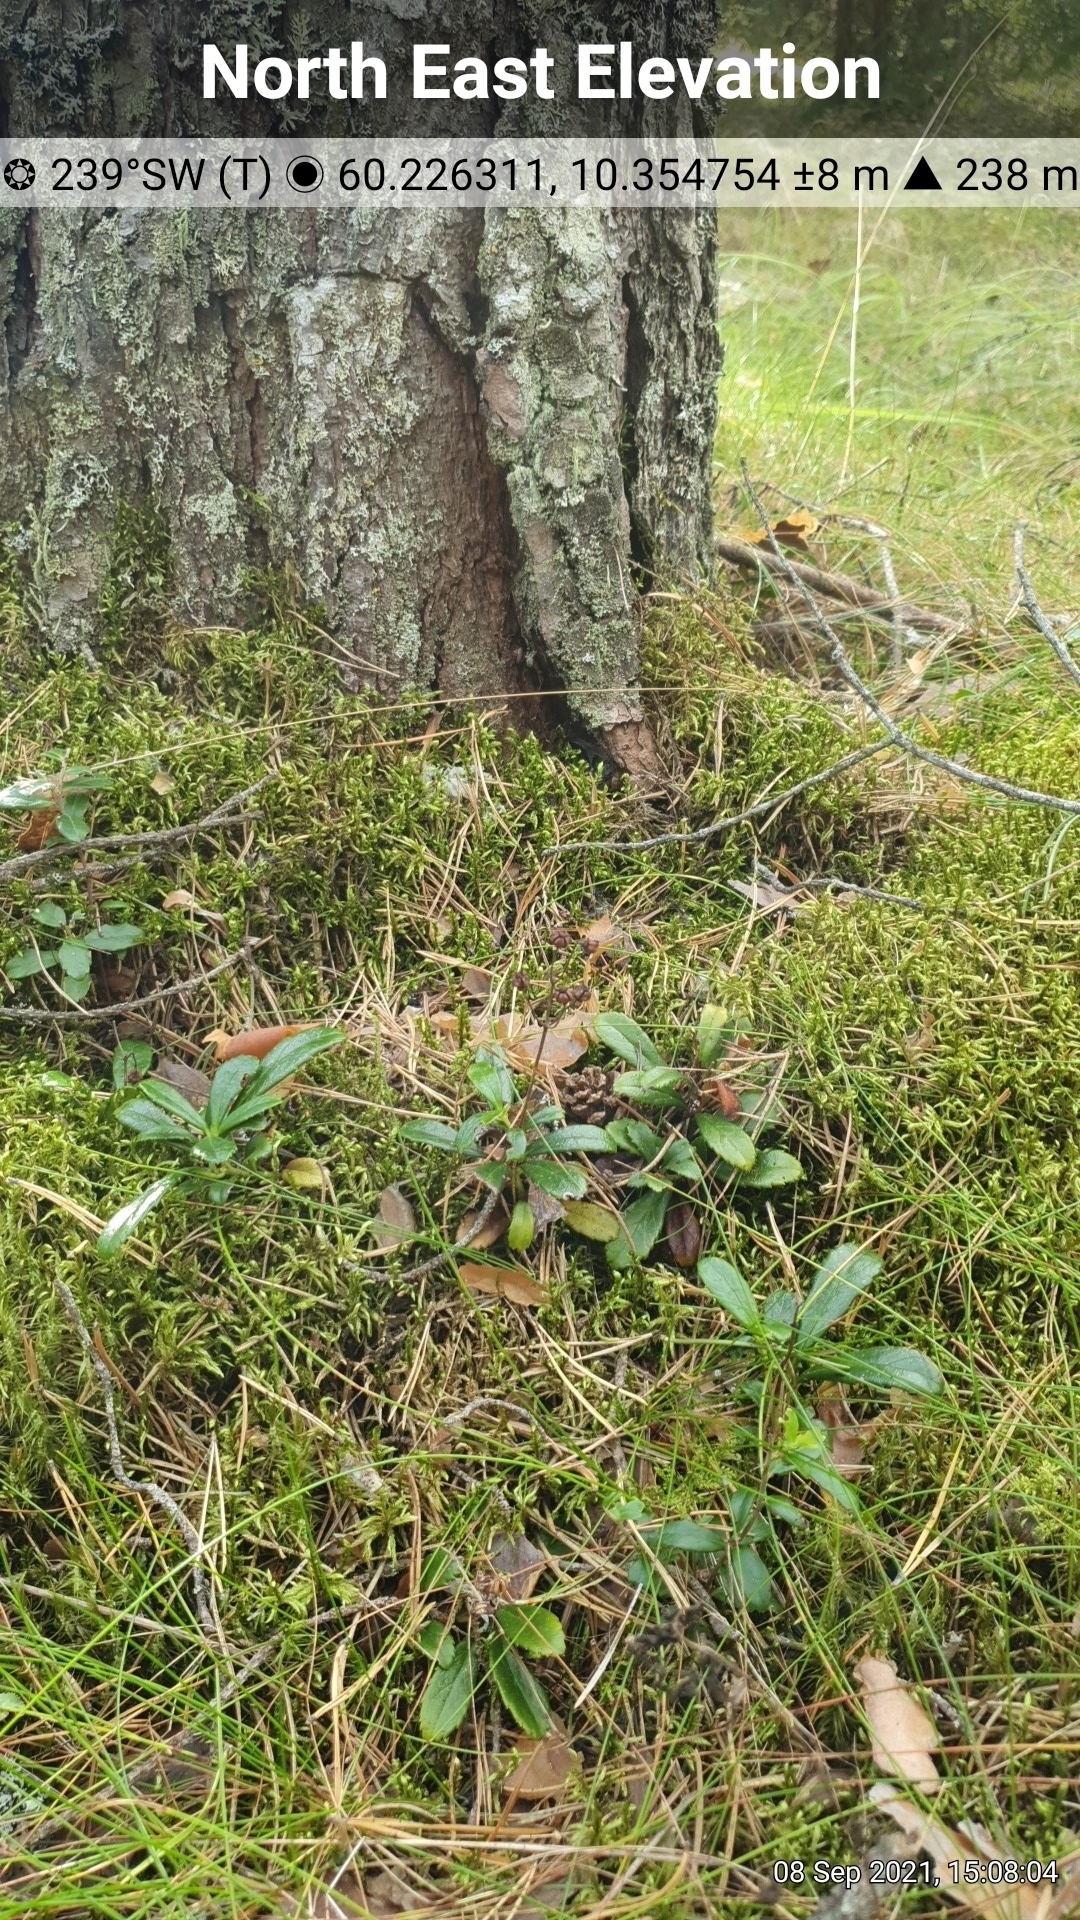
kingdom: Plantae
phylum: Tracheophyta
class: Magnoliopsida
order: Ericales
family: Ericaceae
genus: Chimaphila
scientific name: Chimaphila umbellata
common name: Pipsissewa
